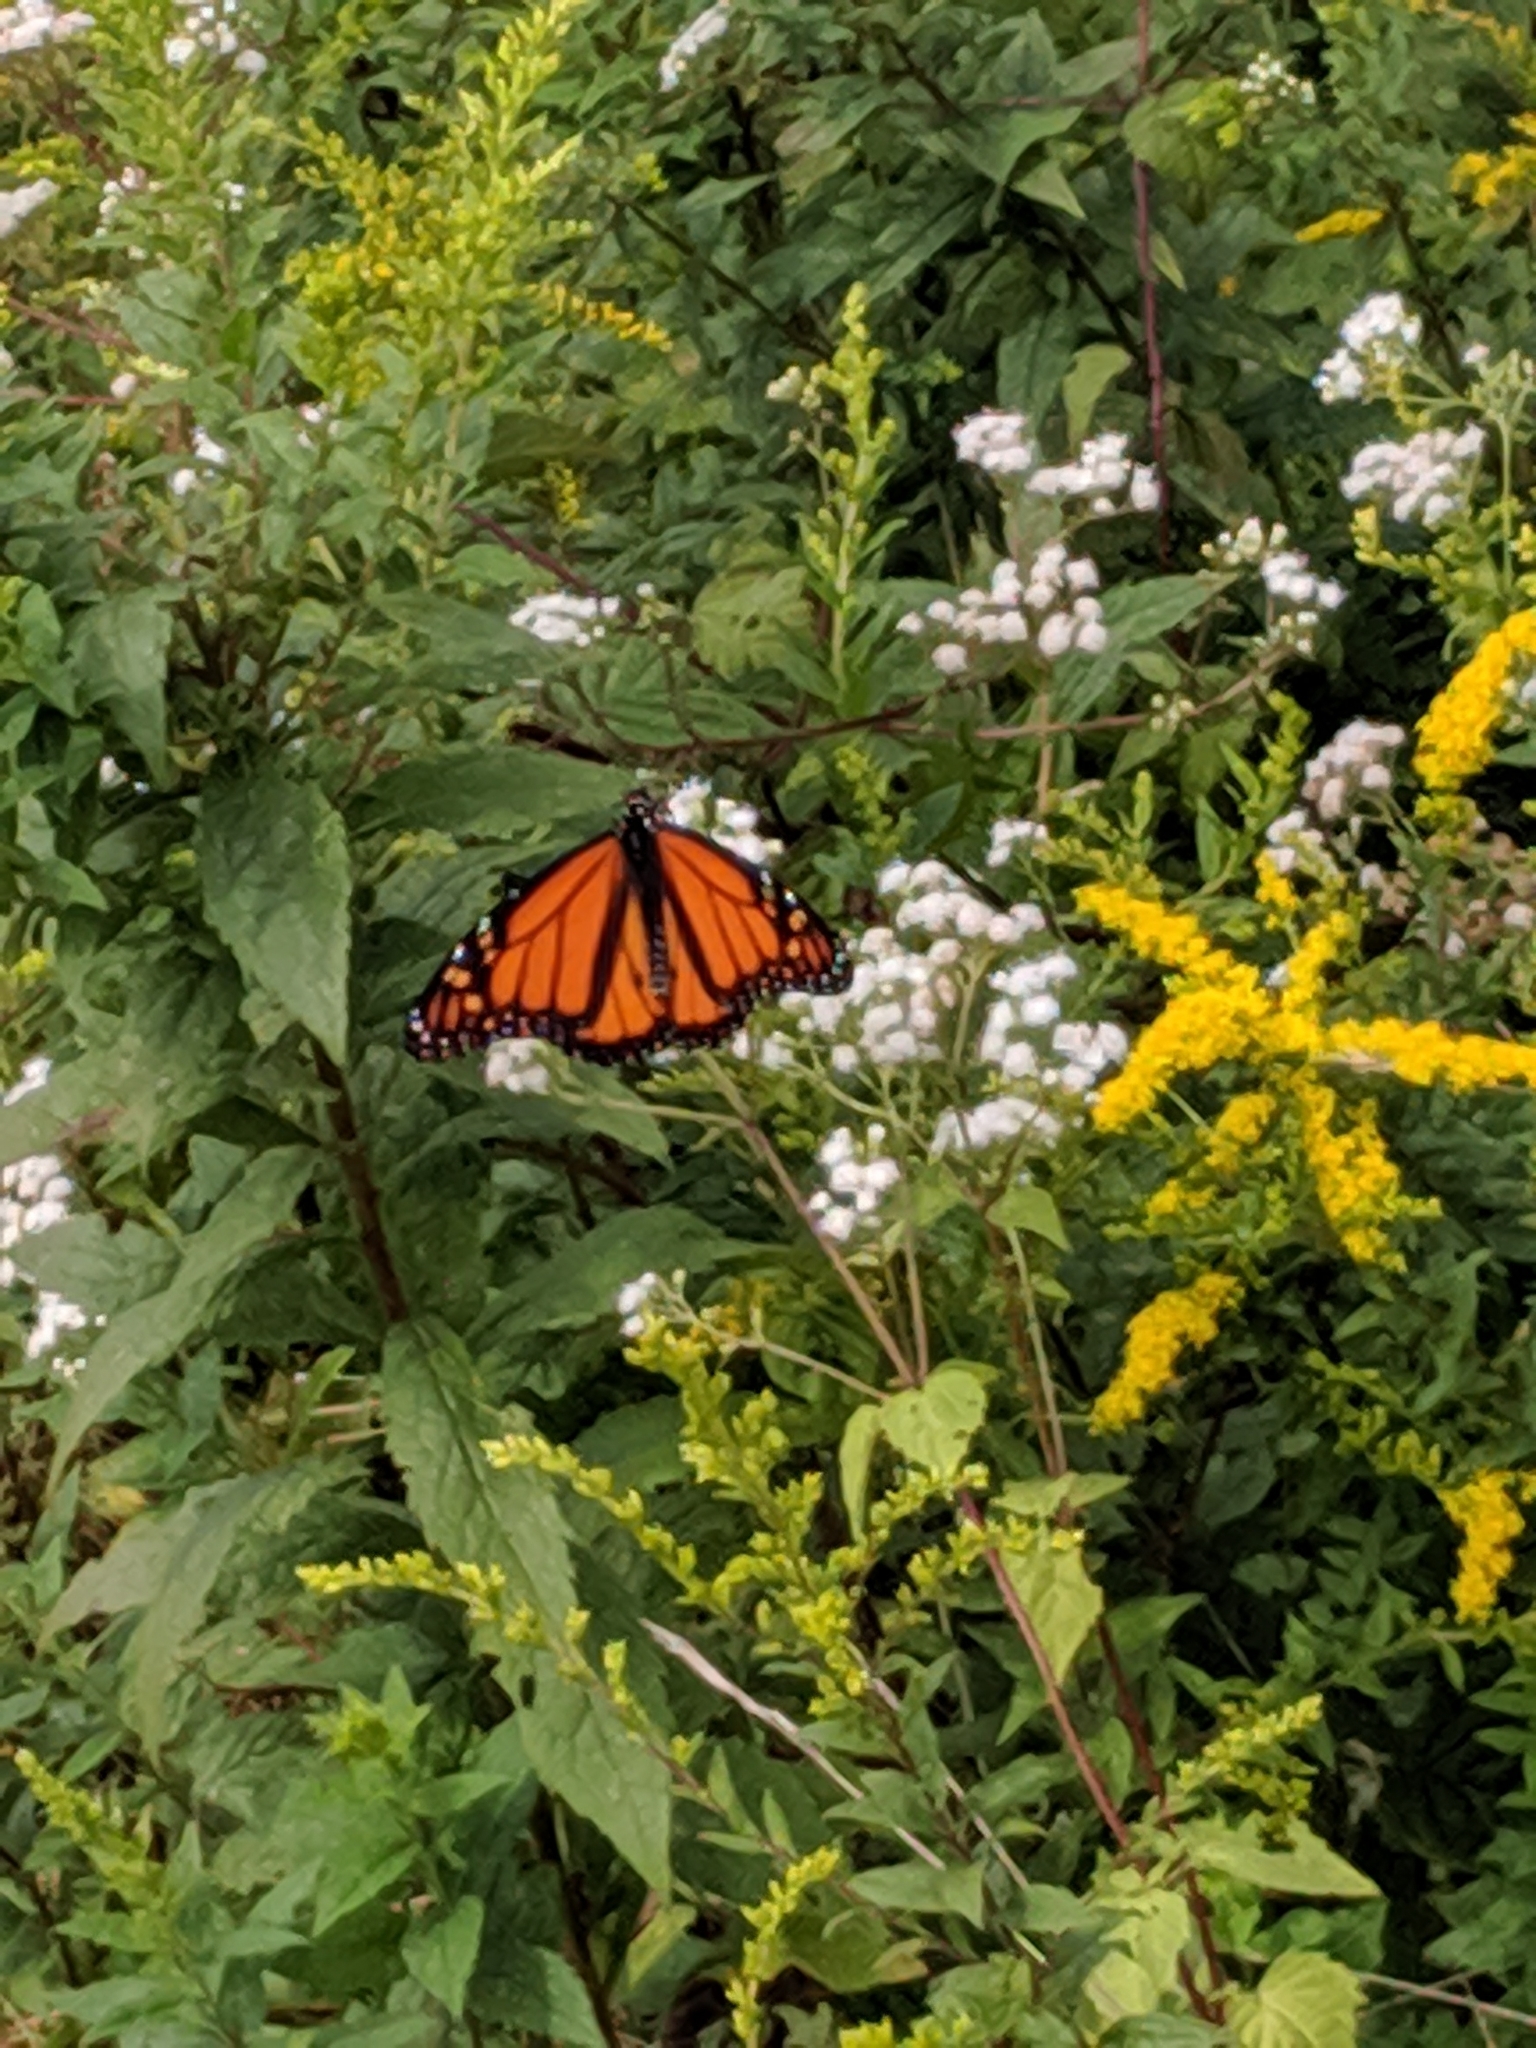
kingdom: Animalia
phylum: Arthropoda
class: Insecta
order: Lepidoptera
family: Nymphalidae
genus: Danaus
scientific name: Danaus plexippus
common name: Monarch
